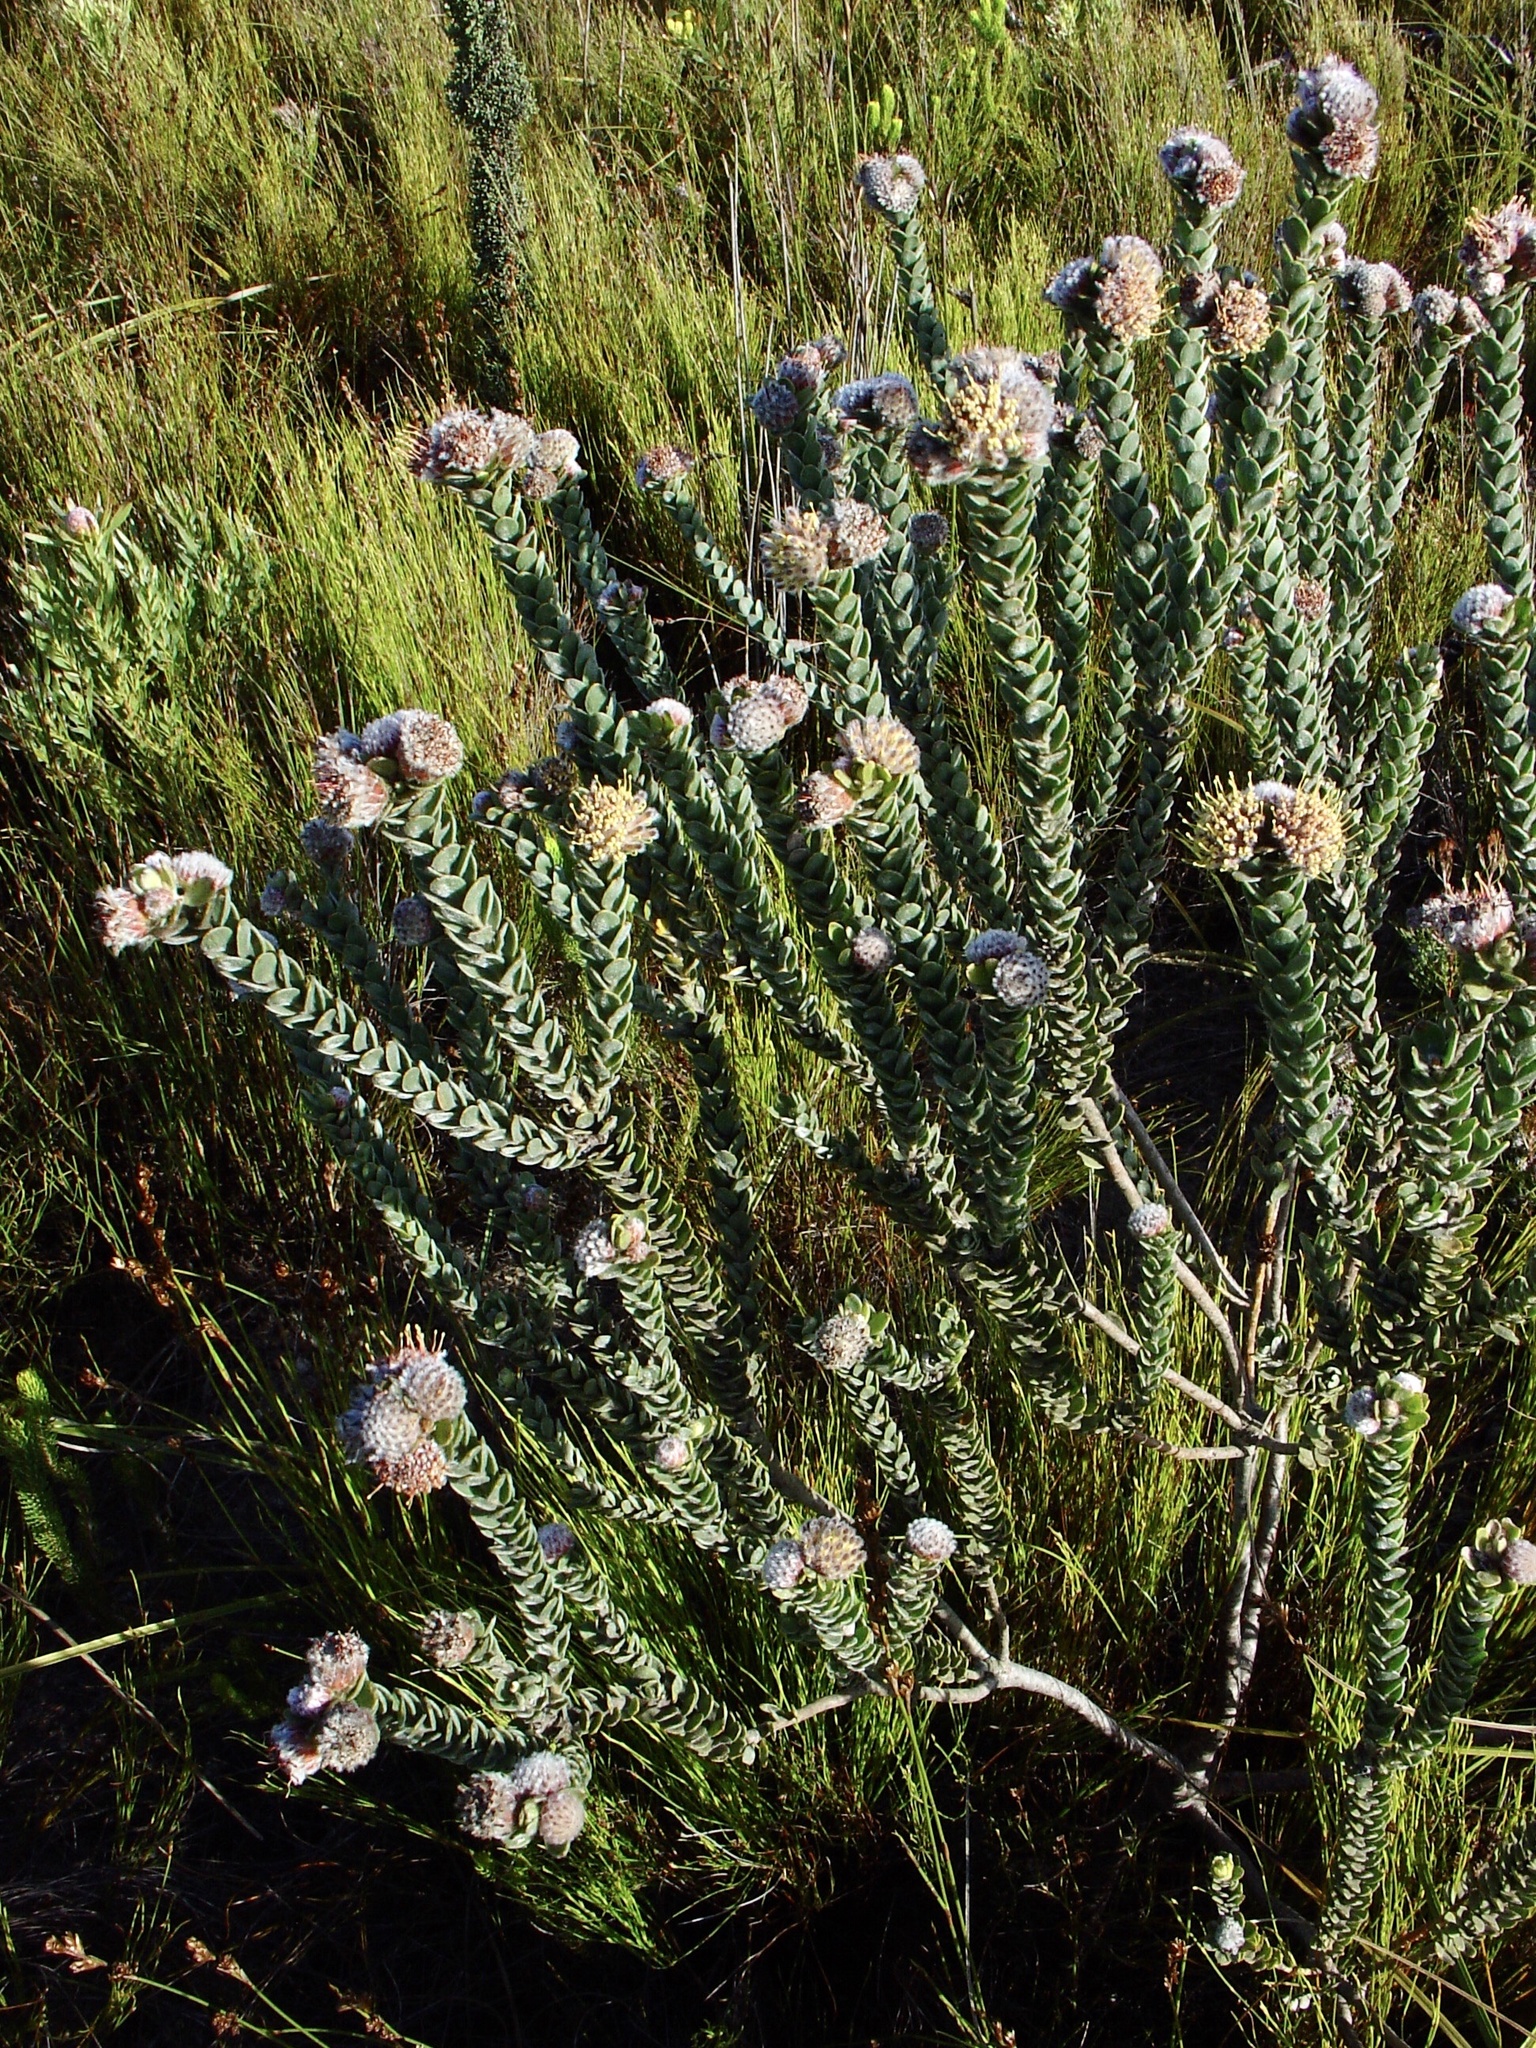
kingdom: Plantae
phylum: Tracheophyta
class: Magnoliopsida
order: Proteales
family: Proteaceae
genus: Leucospermum
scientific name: Leucospermum truncatulum
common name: Oval-leaf pincushion
